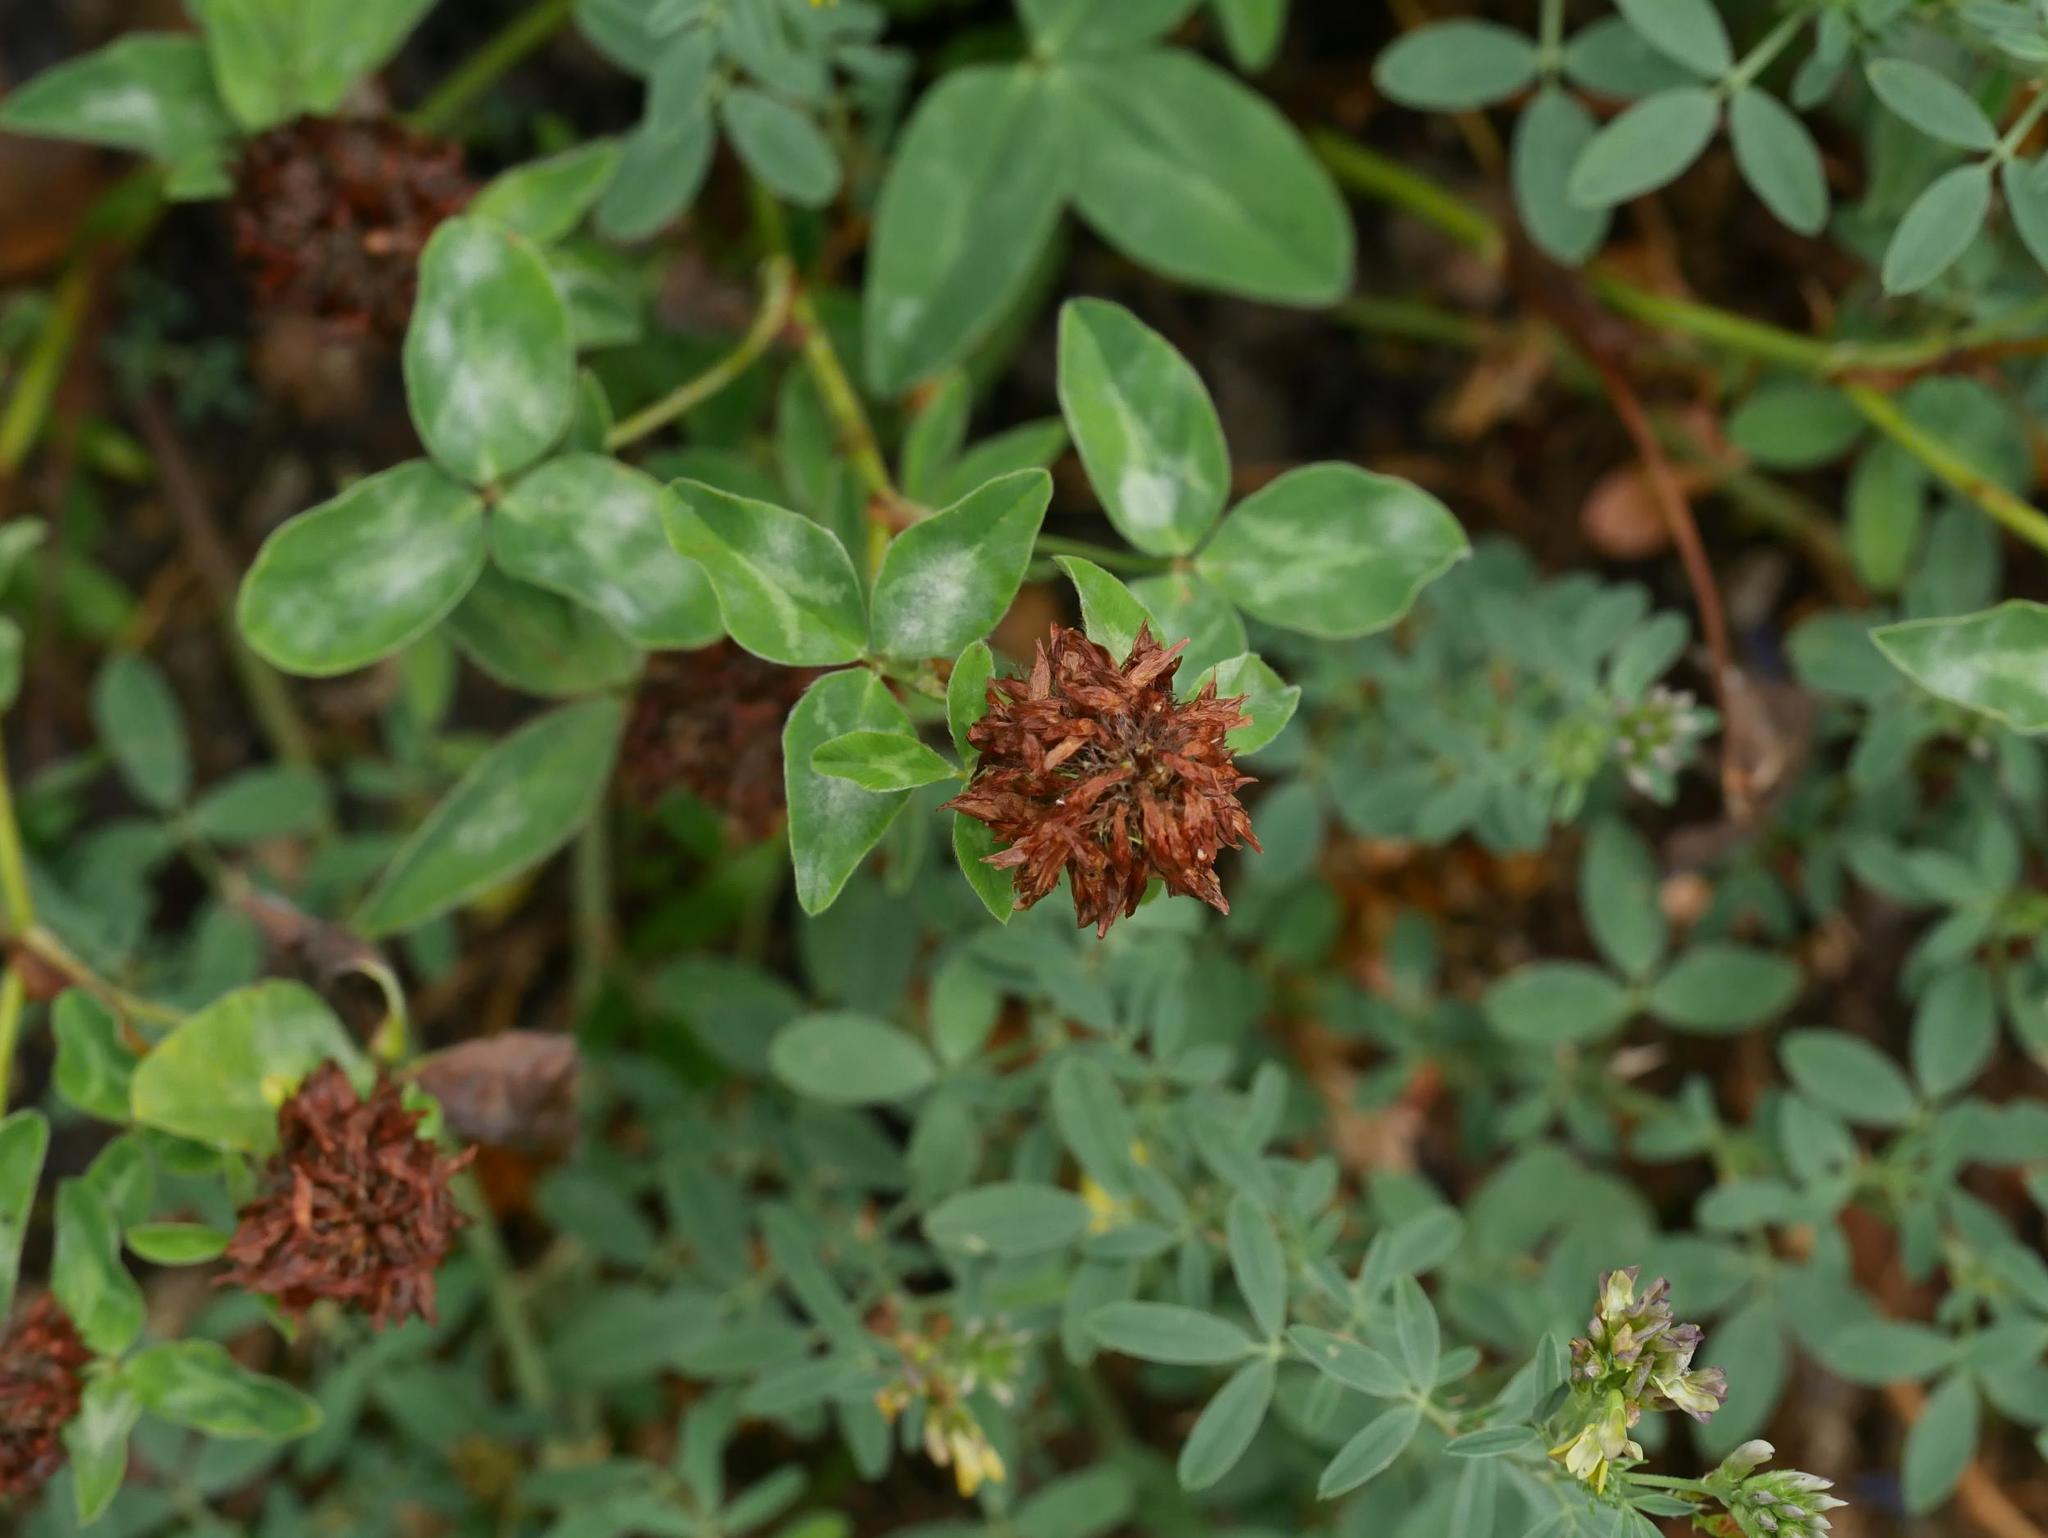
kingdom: Plantae
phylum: Tracheophyta
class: Magnoliopsida
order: Fabales
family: Fabaceae
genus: Trifolium
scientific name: Trifolium pratense
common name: Red clover
